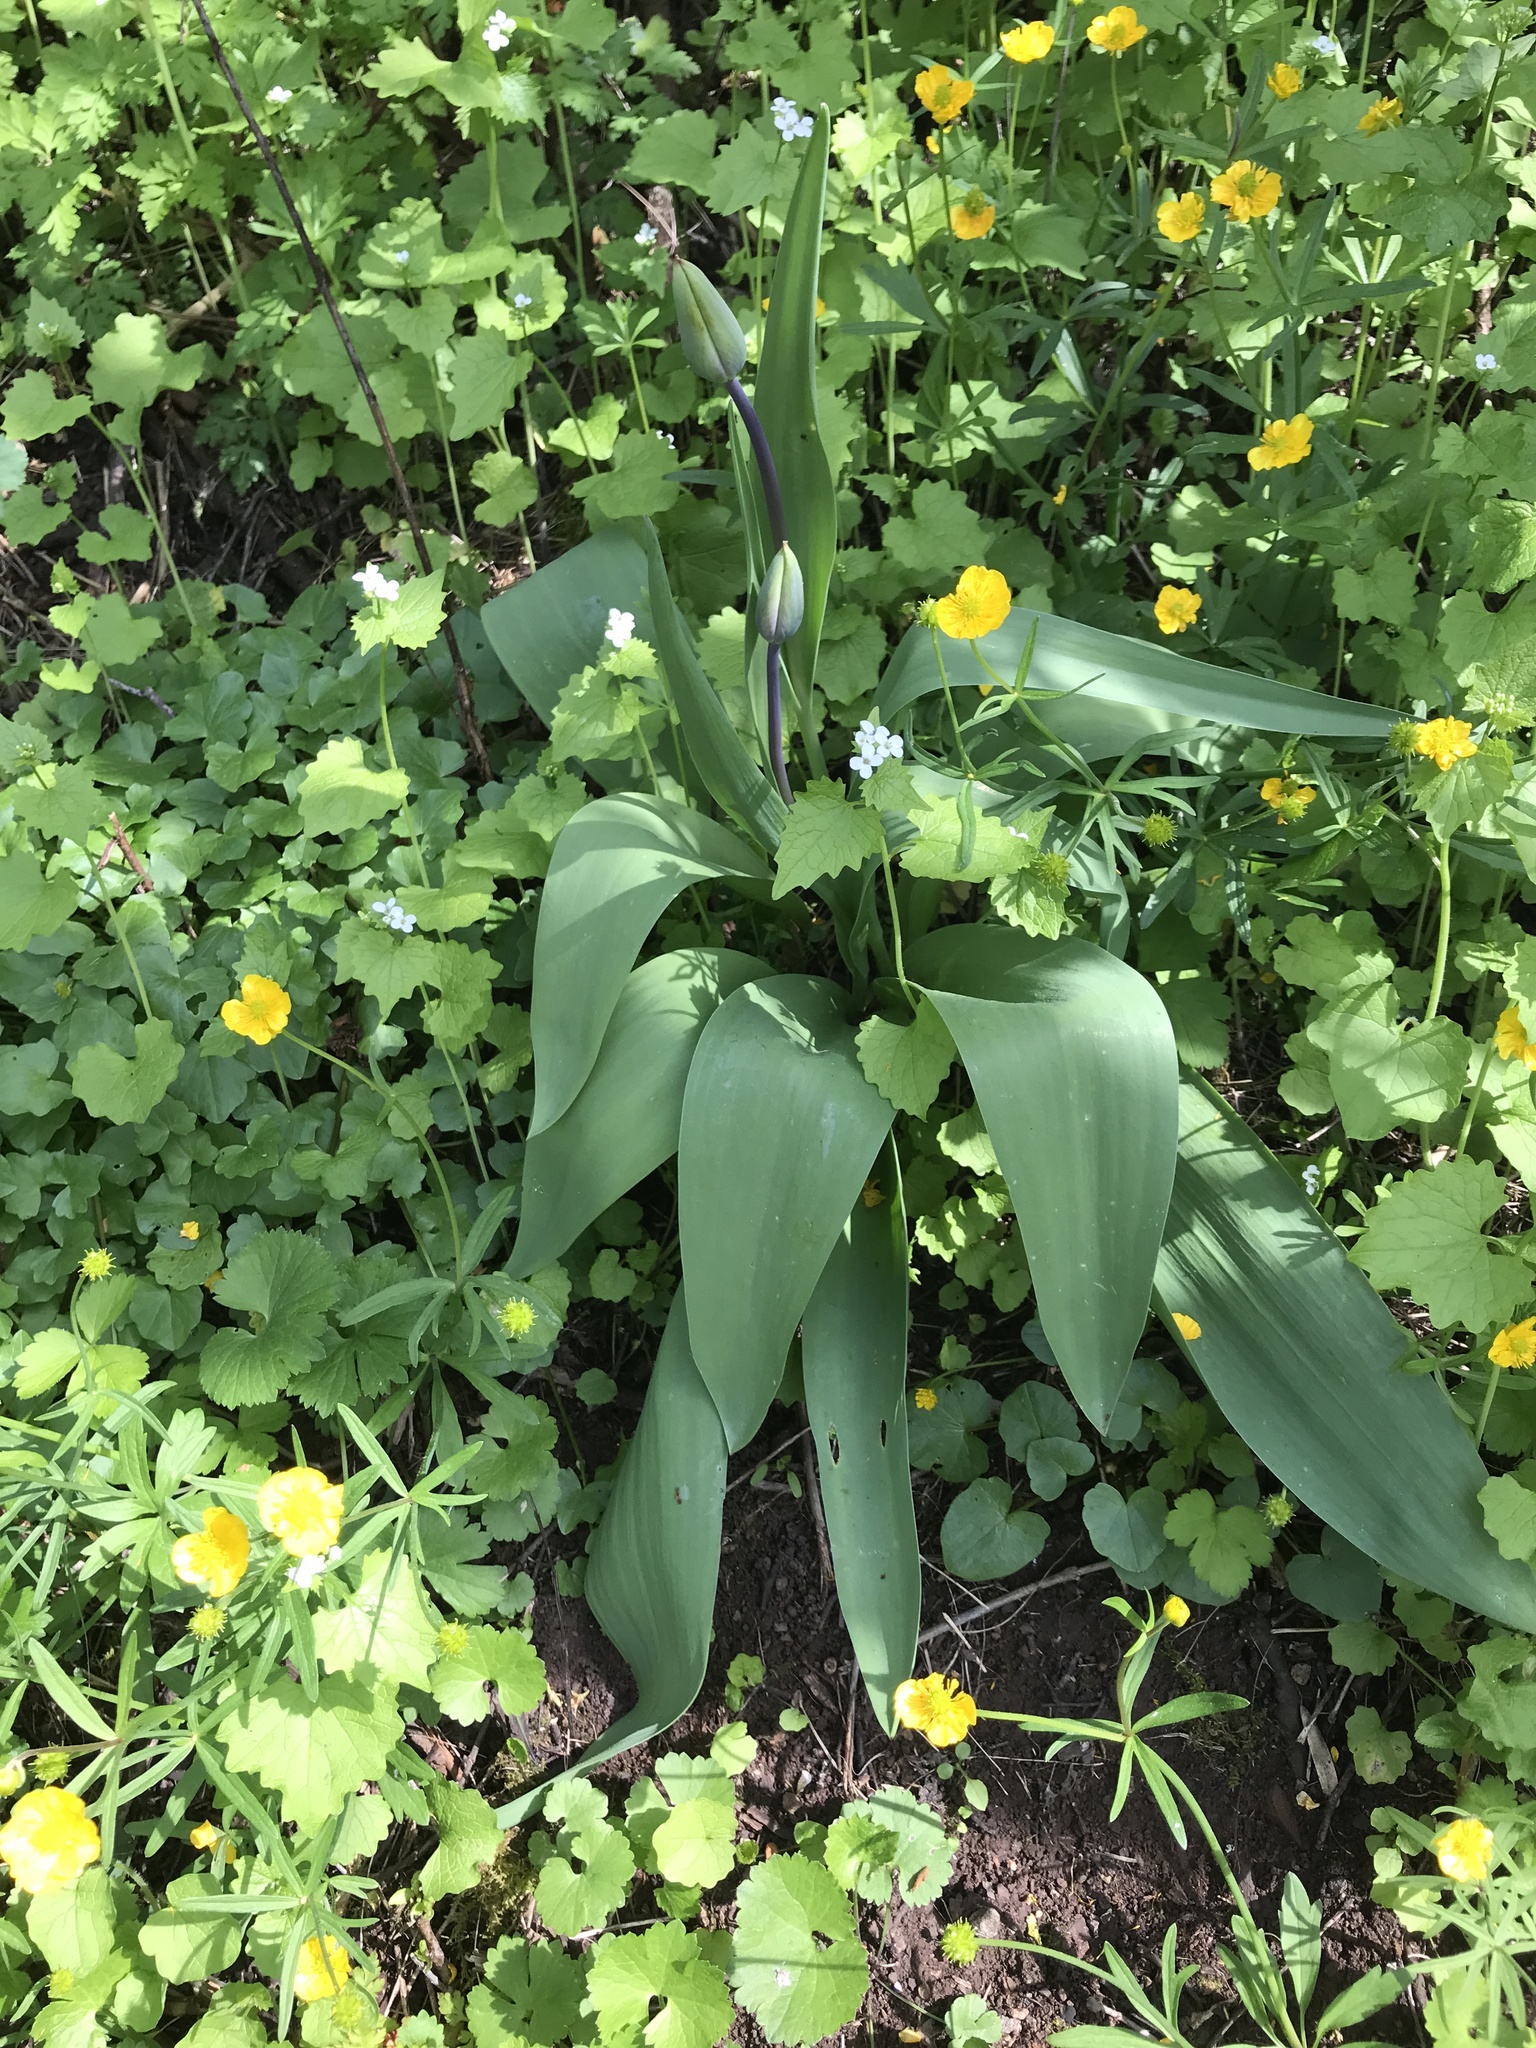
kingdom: Plantae
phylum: Tracheophyta
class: Liliopsida
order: Liliales
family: Liliaceae
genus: Tulipa
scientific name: Tulipa gesneriana
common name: Garden tulip
